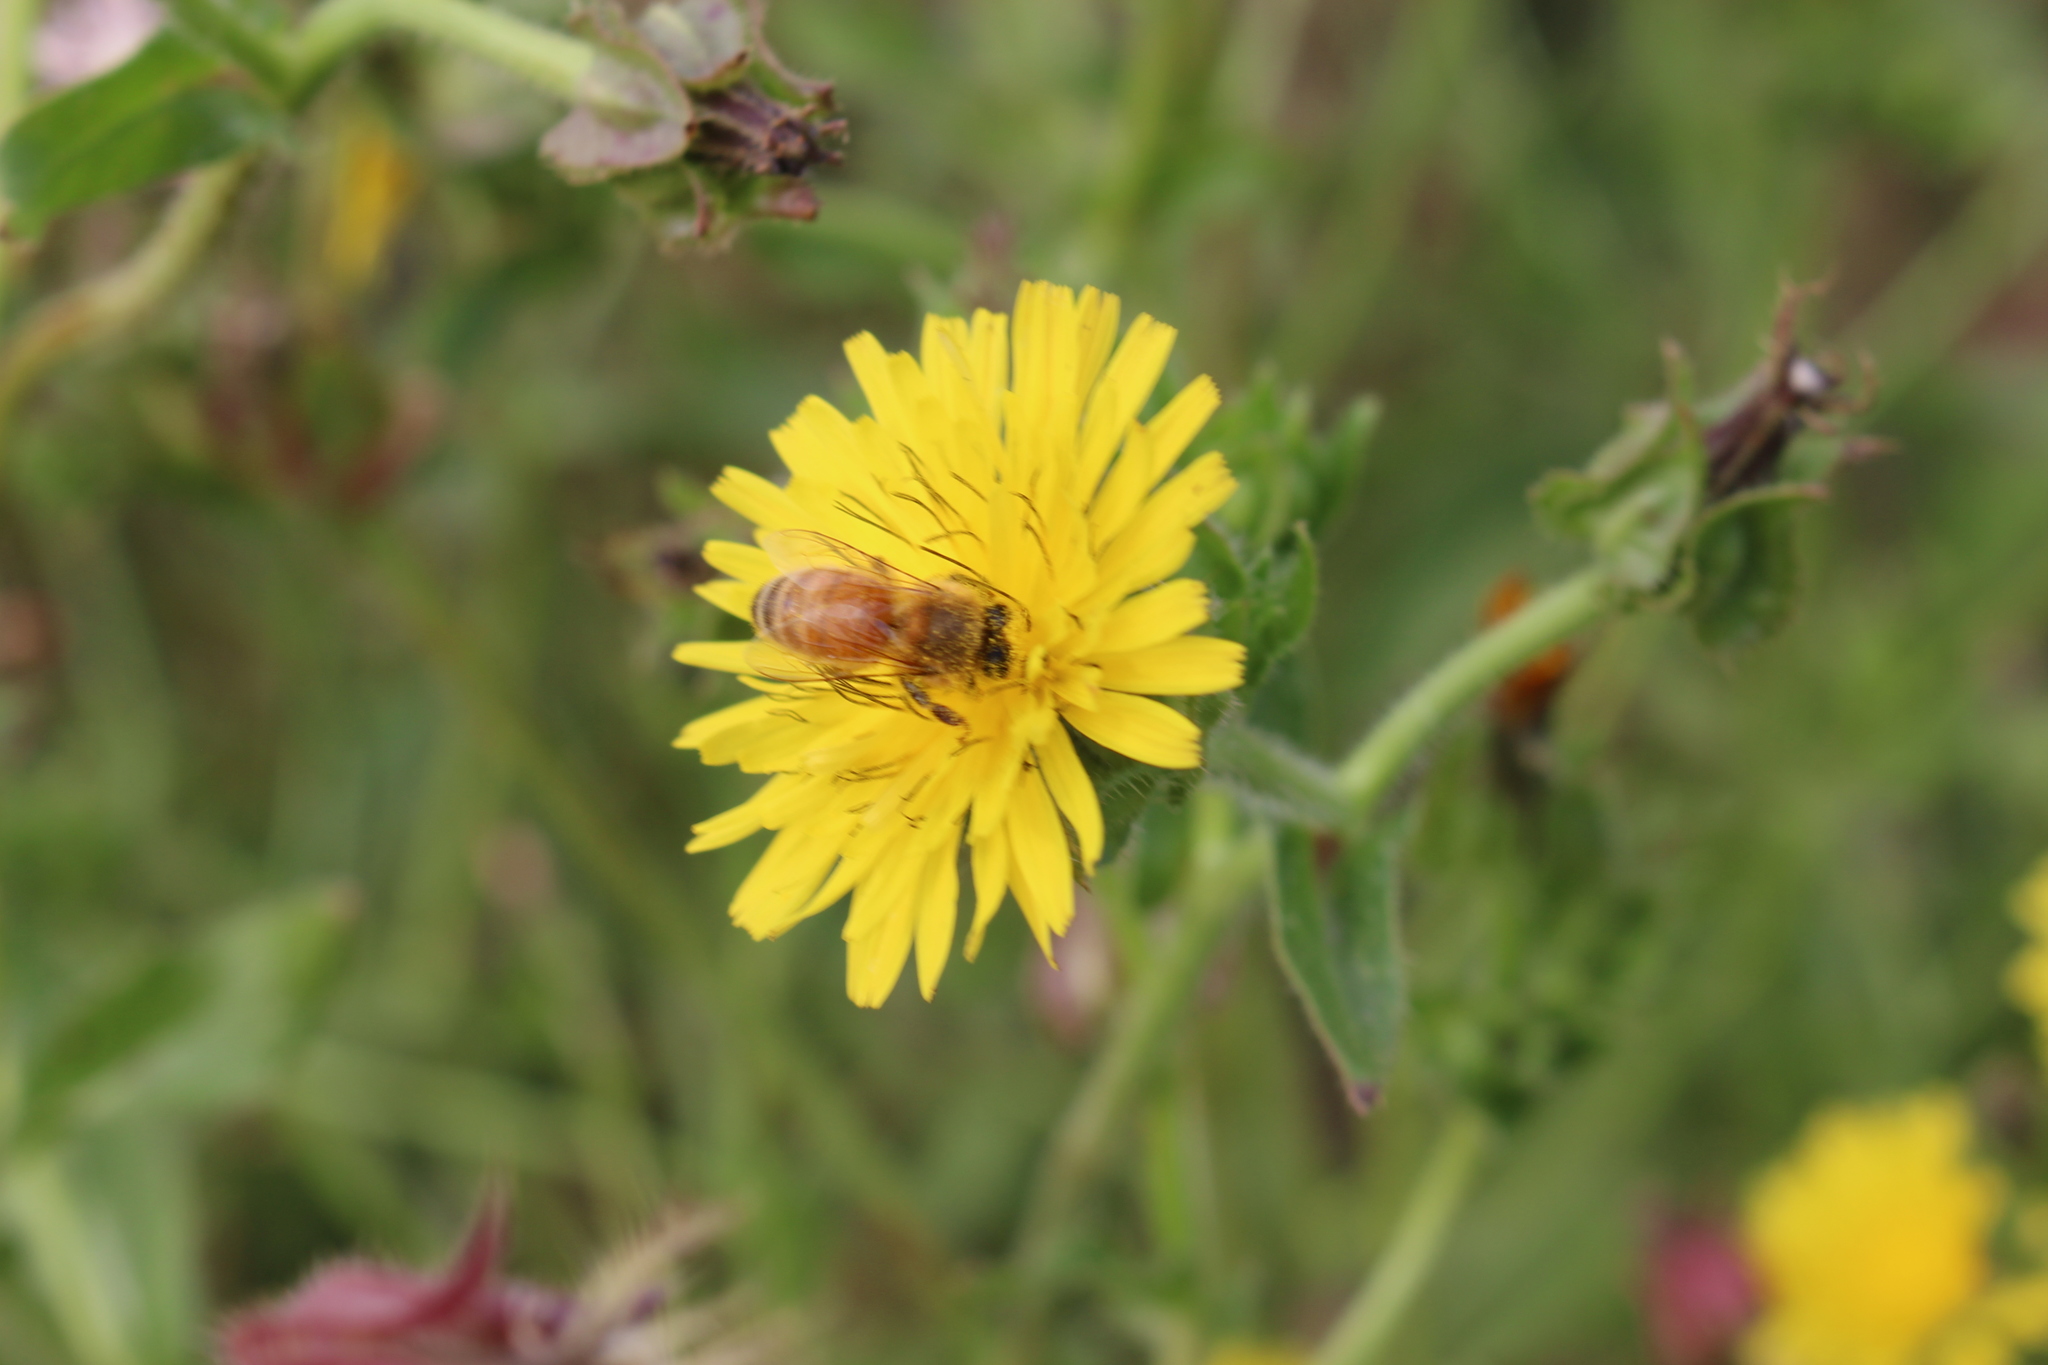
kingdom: Plantae
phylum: Tracheophyta
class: Magnoliopsida
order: Asterales
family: Asteraceae
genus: Helminthotheca
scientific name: Helminthotheca echioides
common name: Ox-tongue
